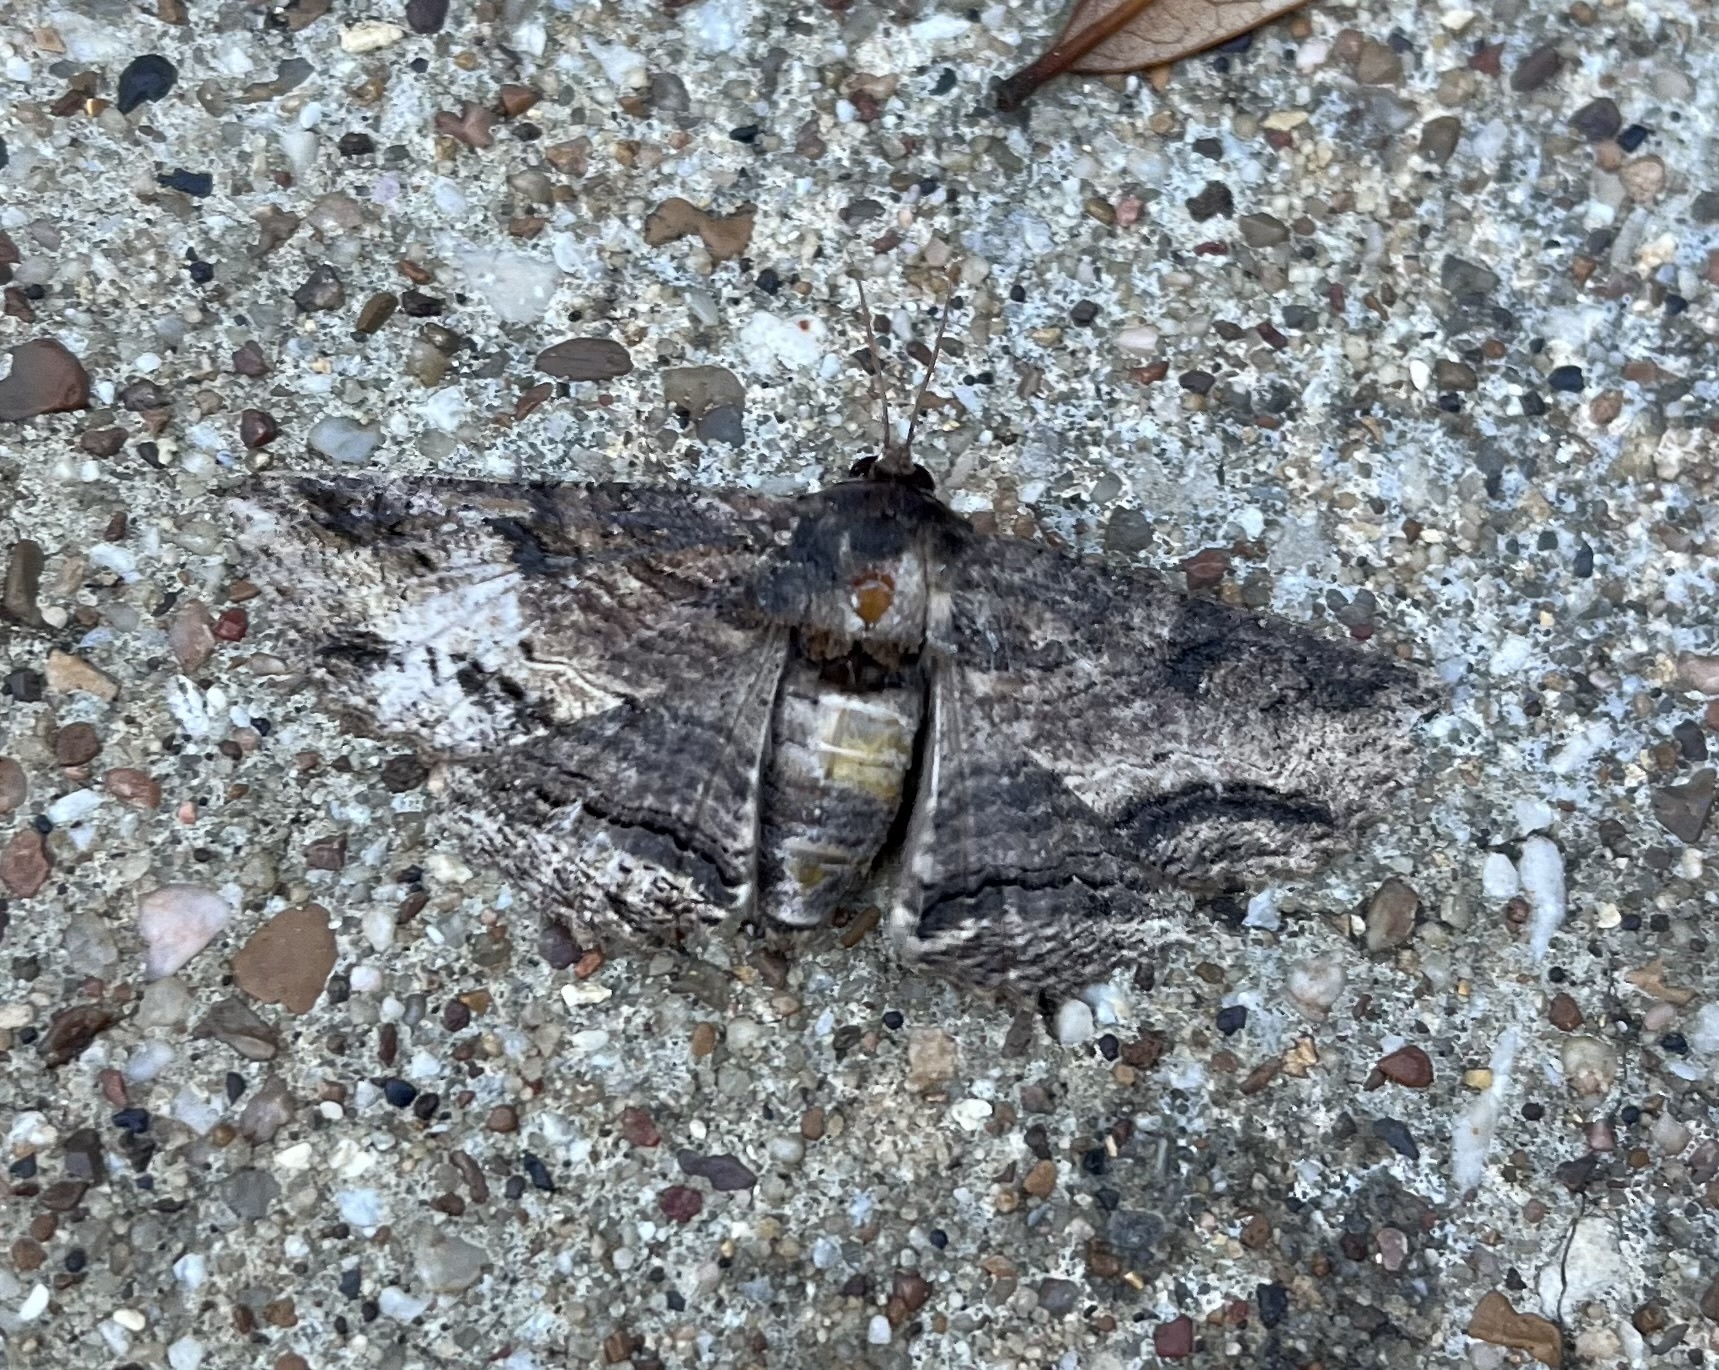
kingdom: Animalia
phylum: Arthropoda
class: Insecta
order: Lepidoptera
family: Erebidae
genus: Zale
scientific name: Zale lunata
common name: Lunate zale moth
